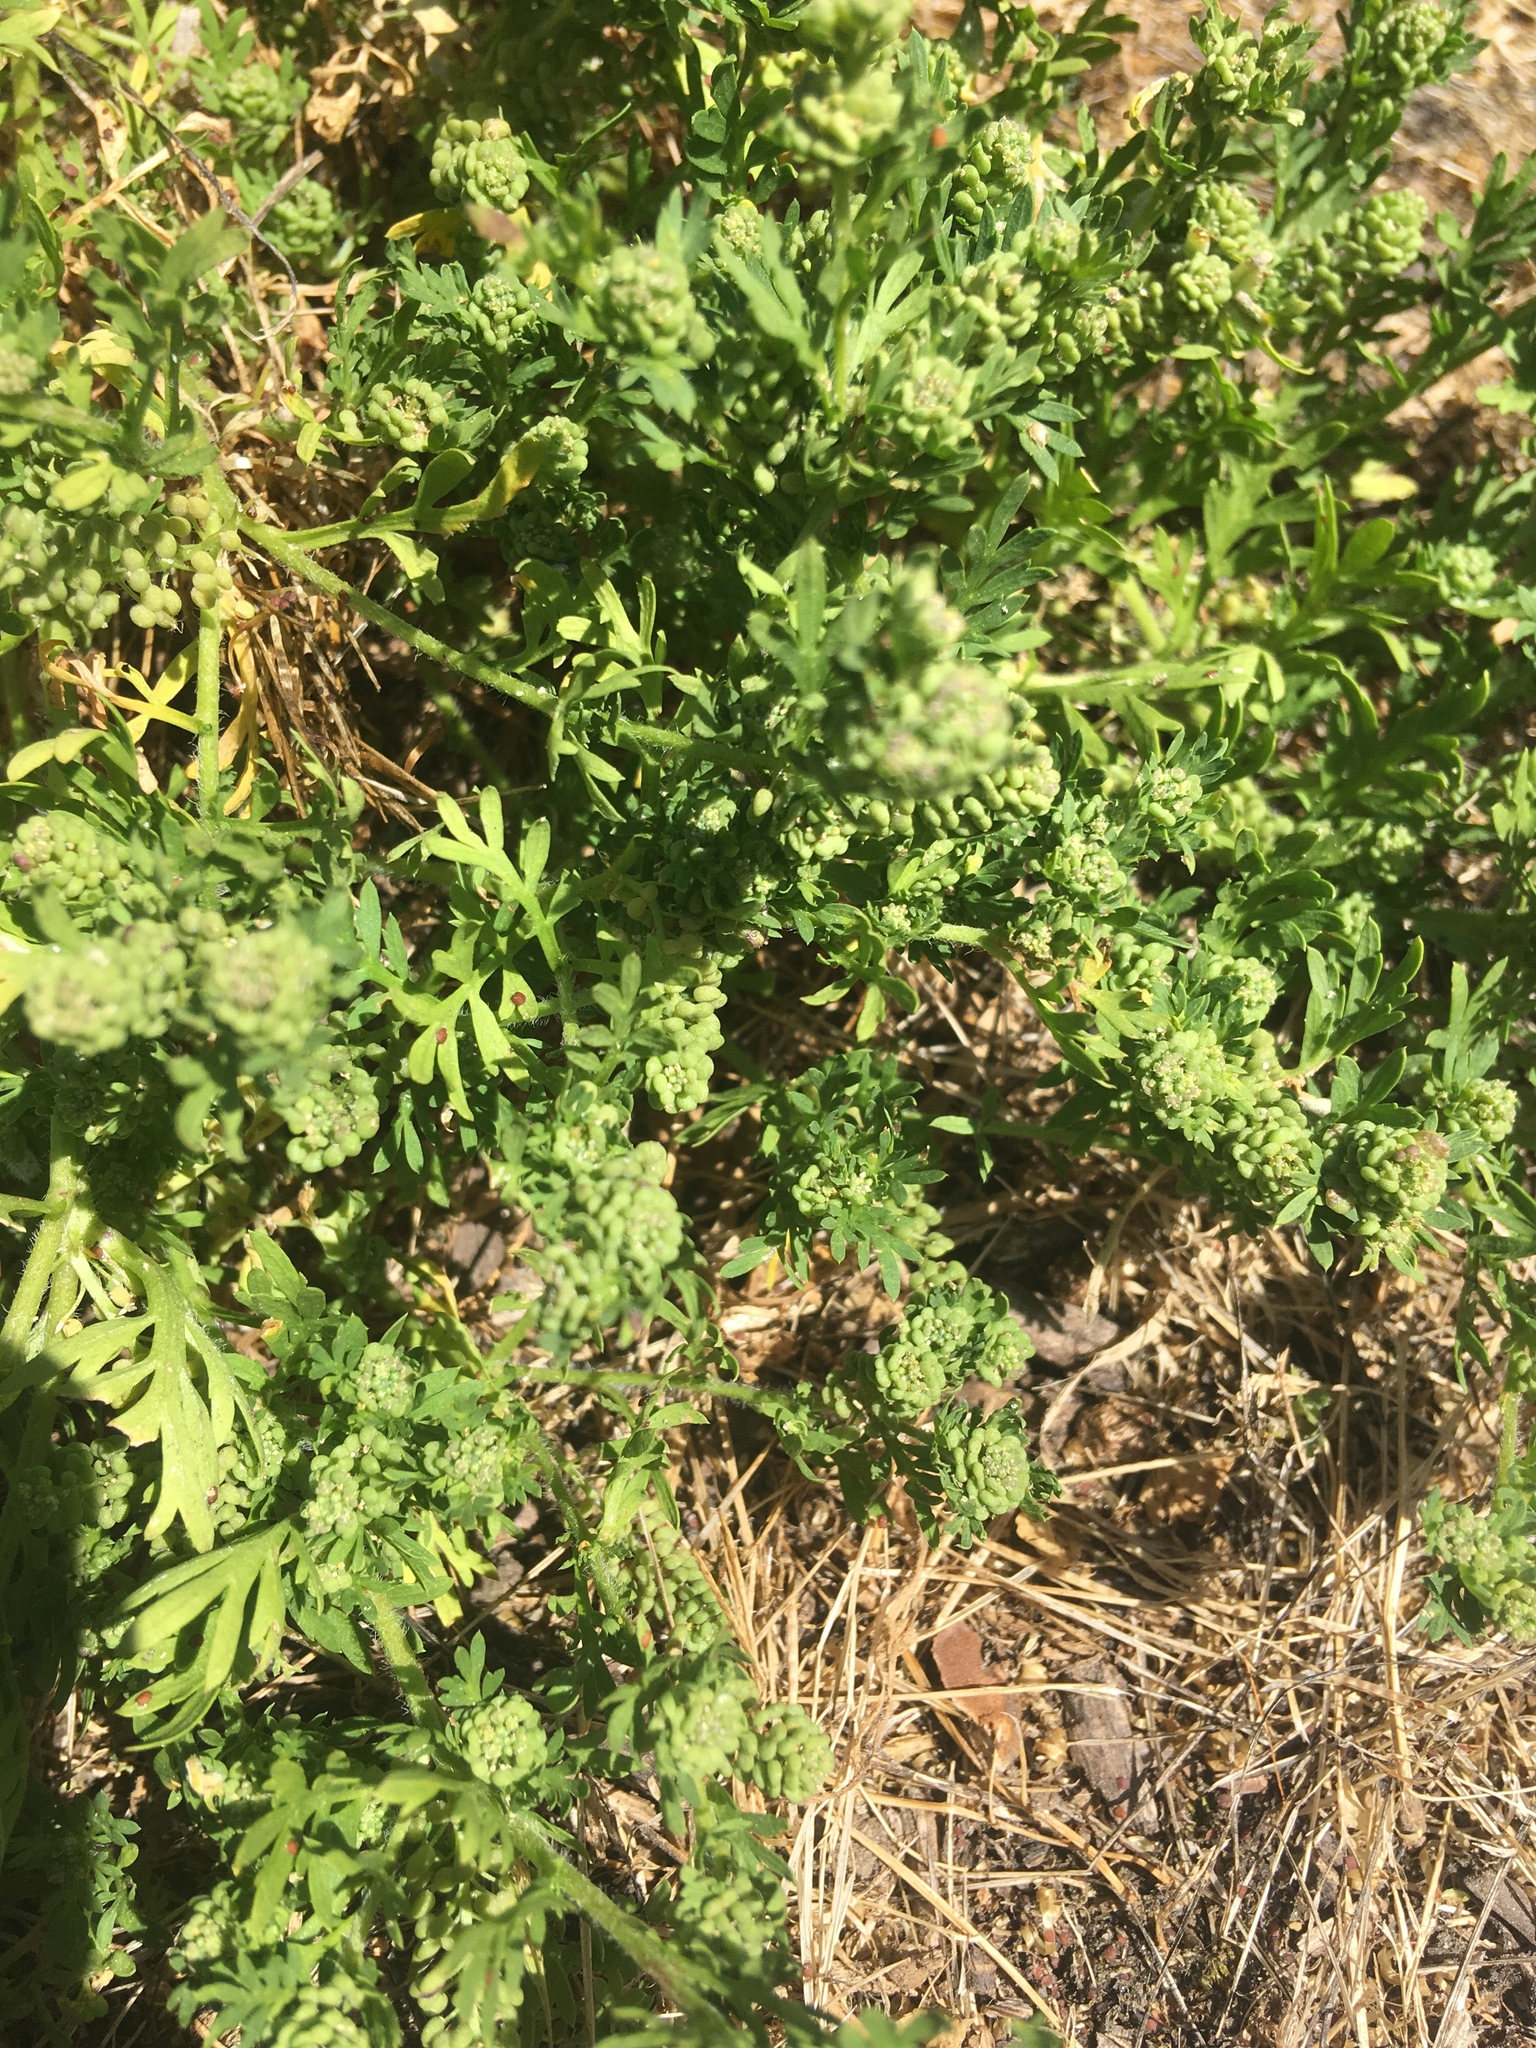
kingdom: Plantae
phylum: Tracheophyta
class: Magnoliopsida
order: Brassicales
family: Brassicaceae
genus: Lepidium
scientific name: Lepidium didymum
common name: Lesser swinecress
